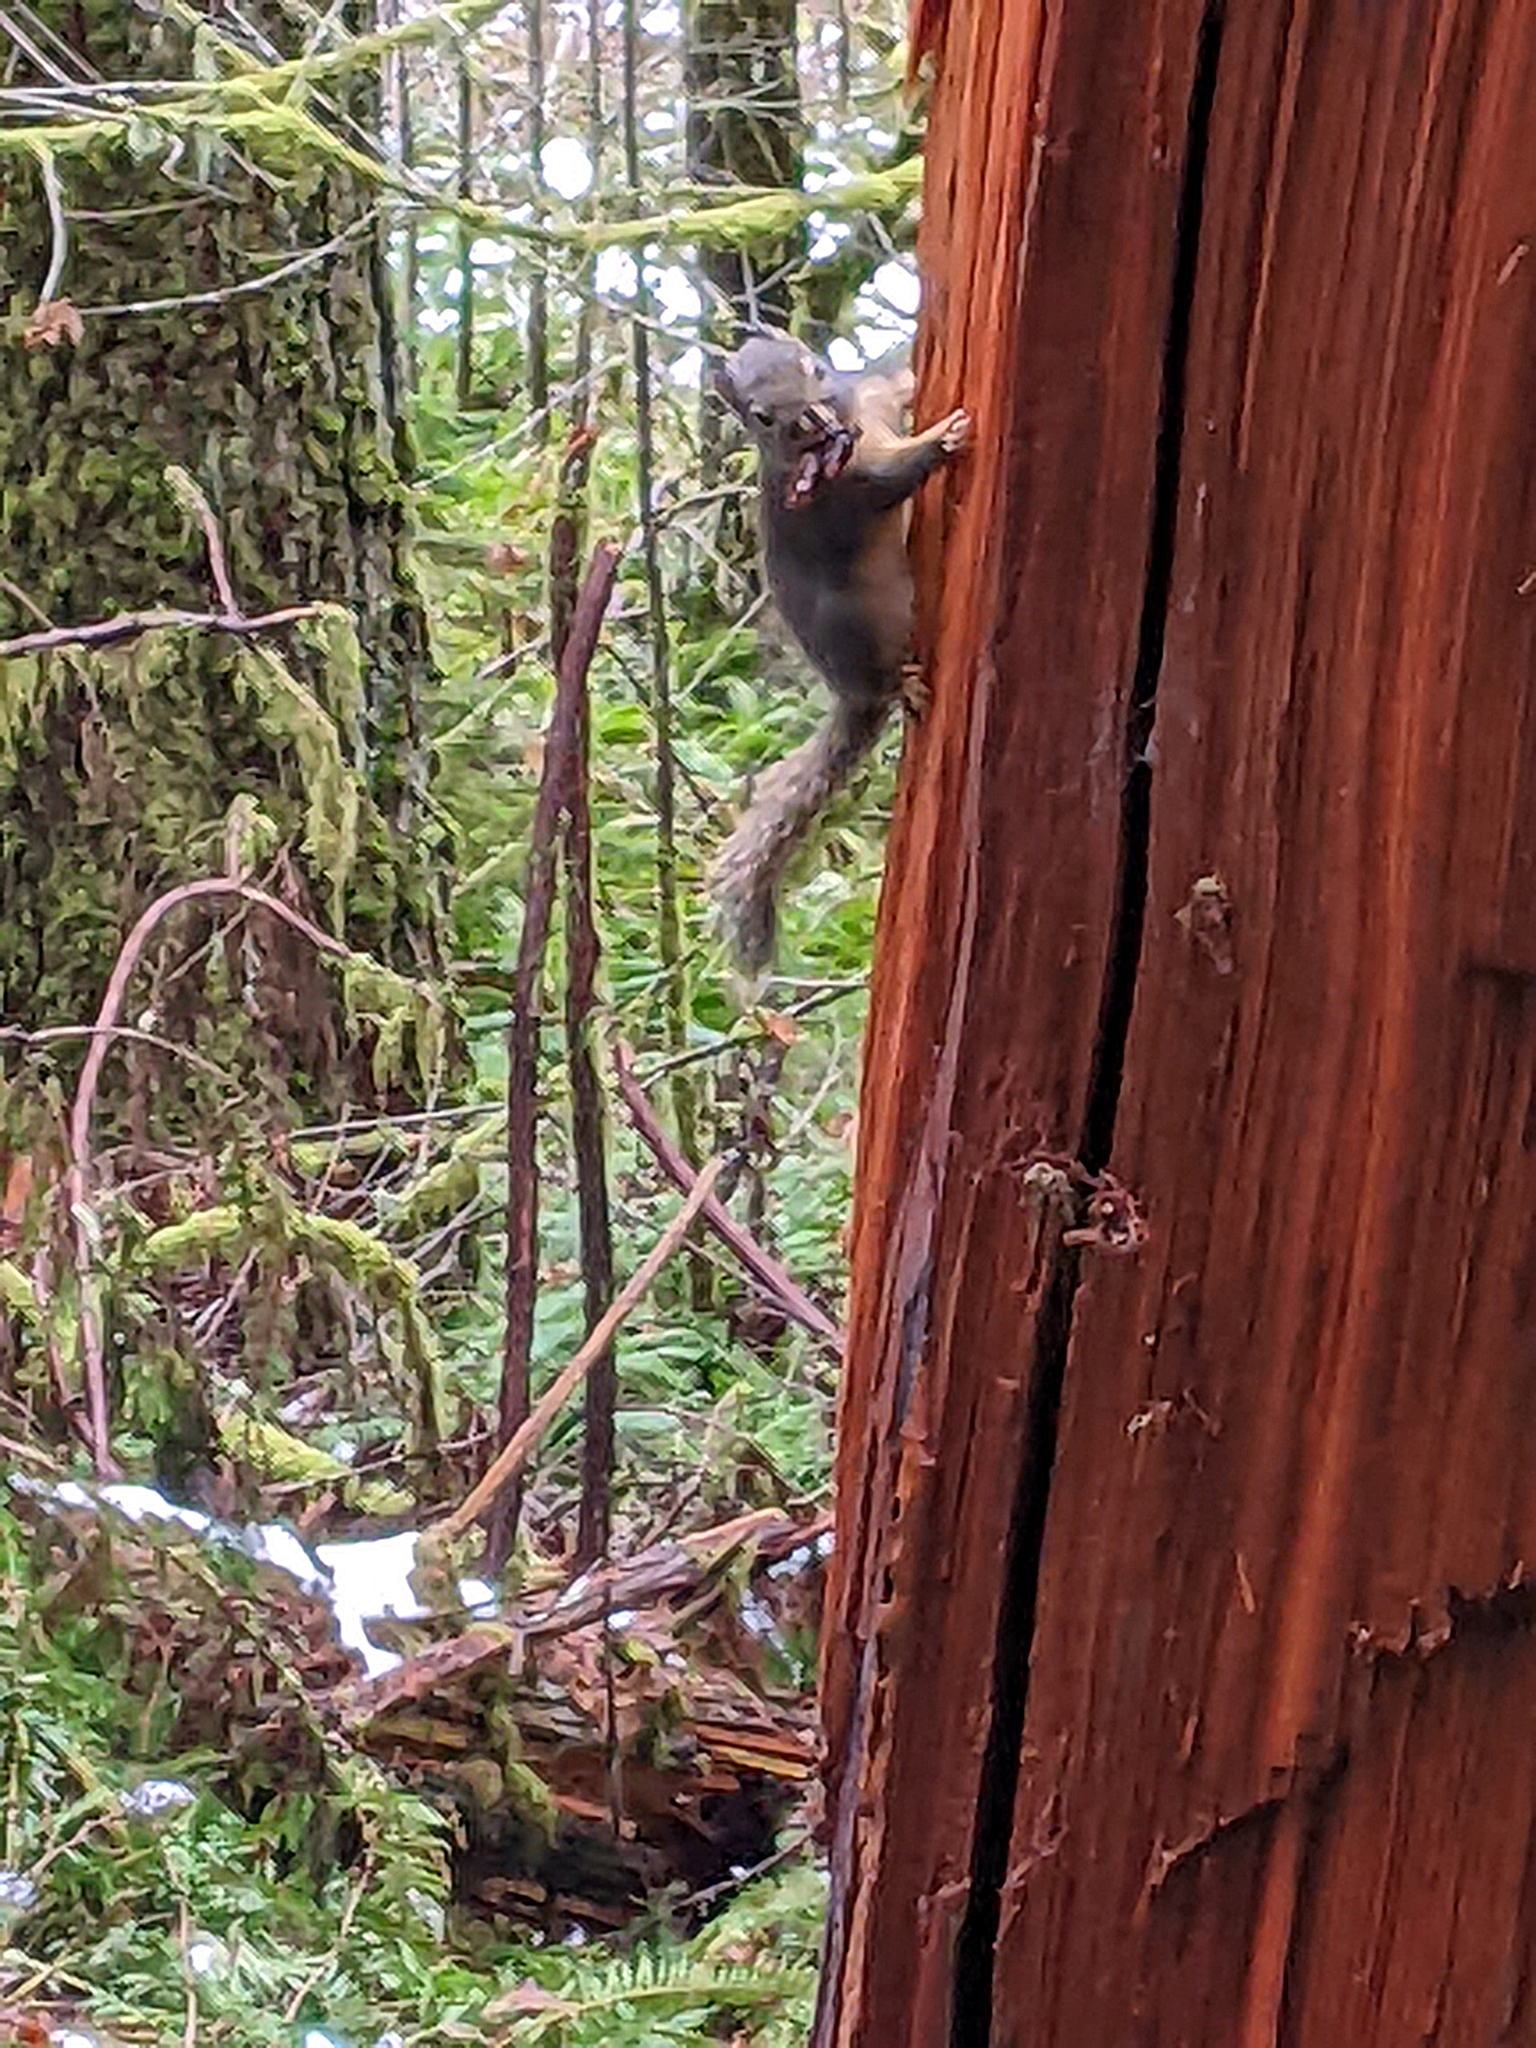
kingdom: Animalia
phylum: Chordata
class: Mammalia
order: Rodentia
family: Sciuridae
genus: Tamiasciurus
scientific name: Tamiasciurus douglasii
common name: Douglas's squirrel
